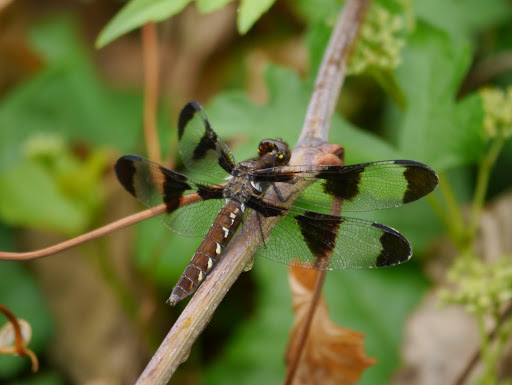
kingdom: Animalia
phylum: Arthropoda
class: Insecta
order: Odonata
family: Libellulidae
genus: Plathemis
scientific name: Plathemis lydia
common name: Common whitetail
